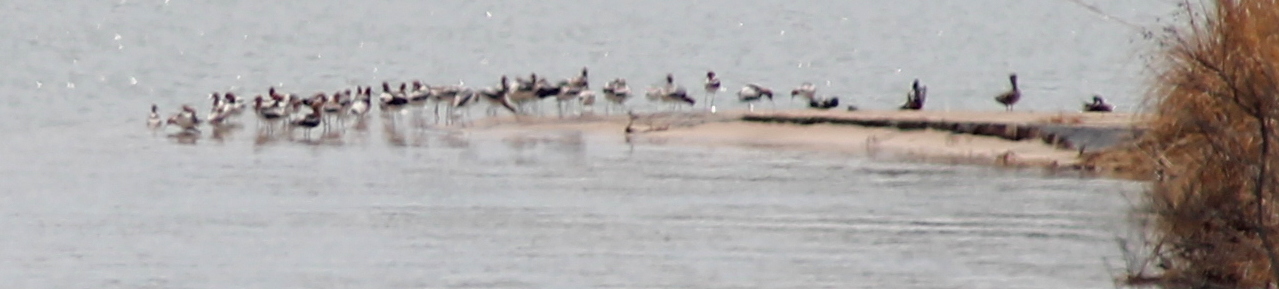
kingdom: Animalia
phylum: Chordata
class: Aves
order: Charadriiformes
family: Recurvirostridae
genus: Recurvirostra
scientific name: Recurvirostra americana
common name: American avocet
